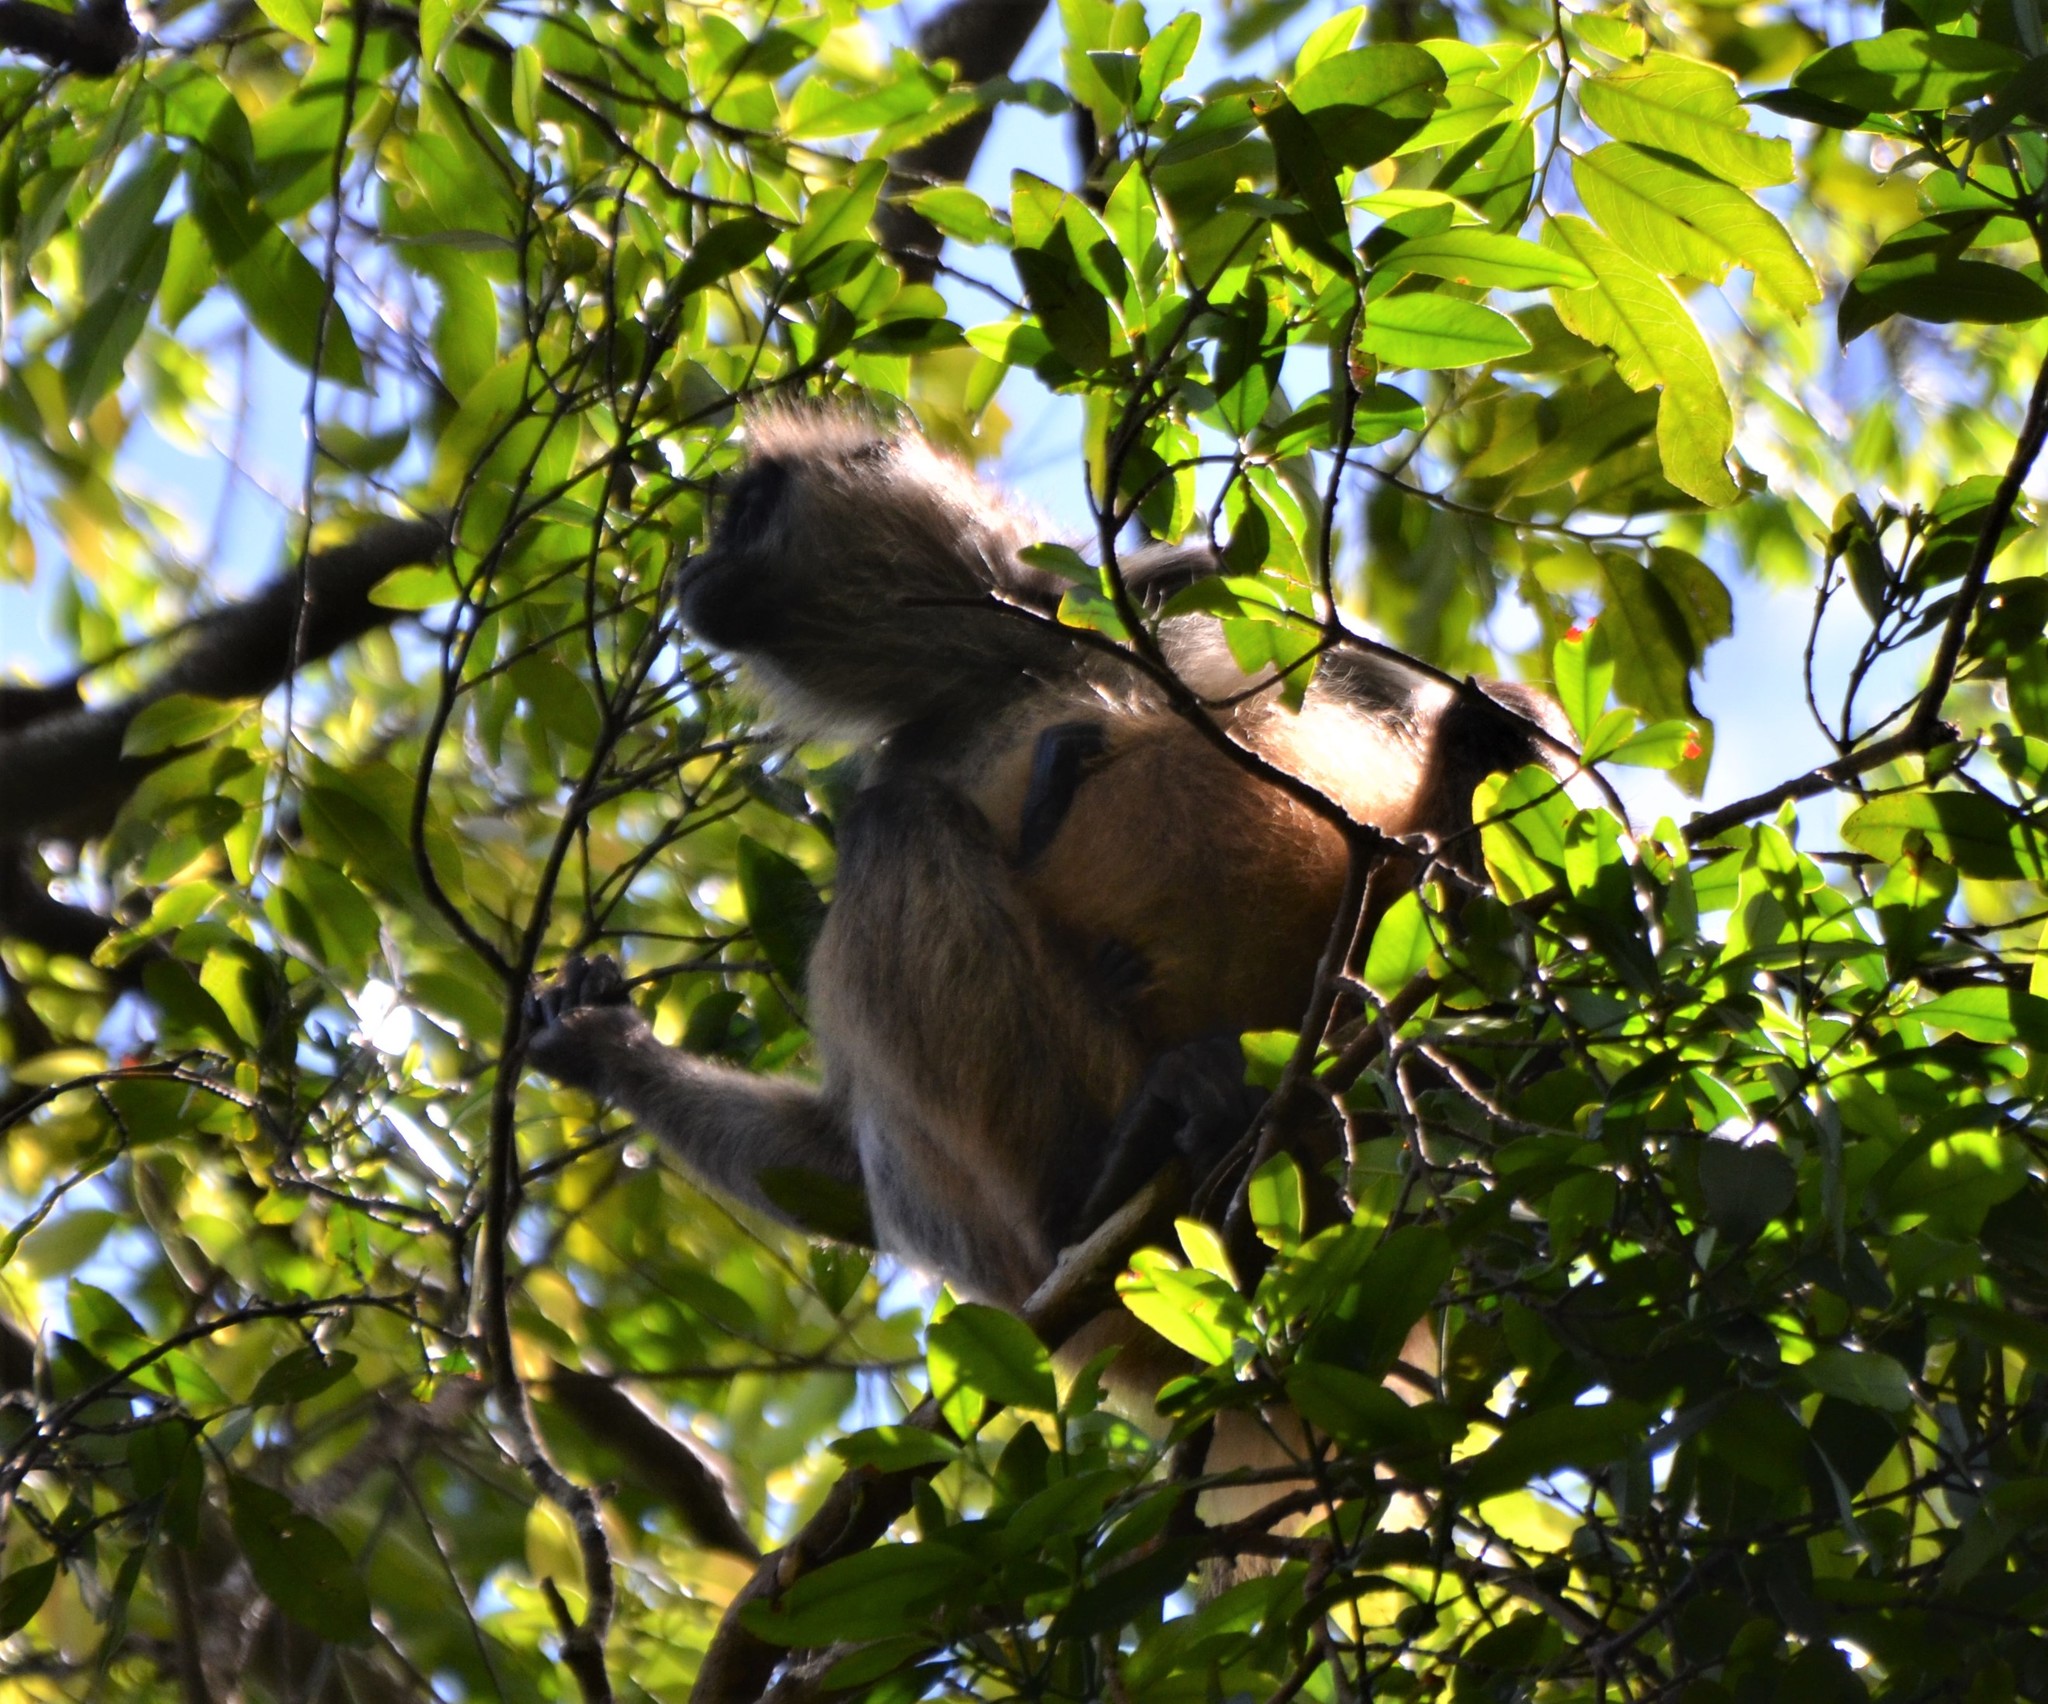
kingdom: Animalia
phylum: Chordata
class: Mammalia
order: Primates
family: Atelidae
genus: Ateles
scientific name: Ateles geoffroyi
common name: Black-handed spider monkey
